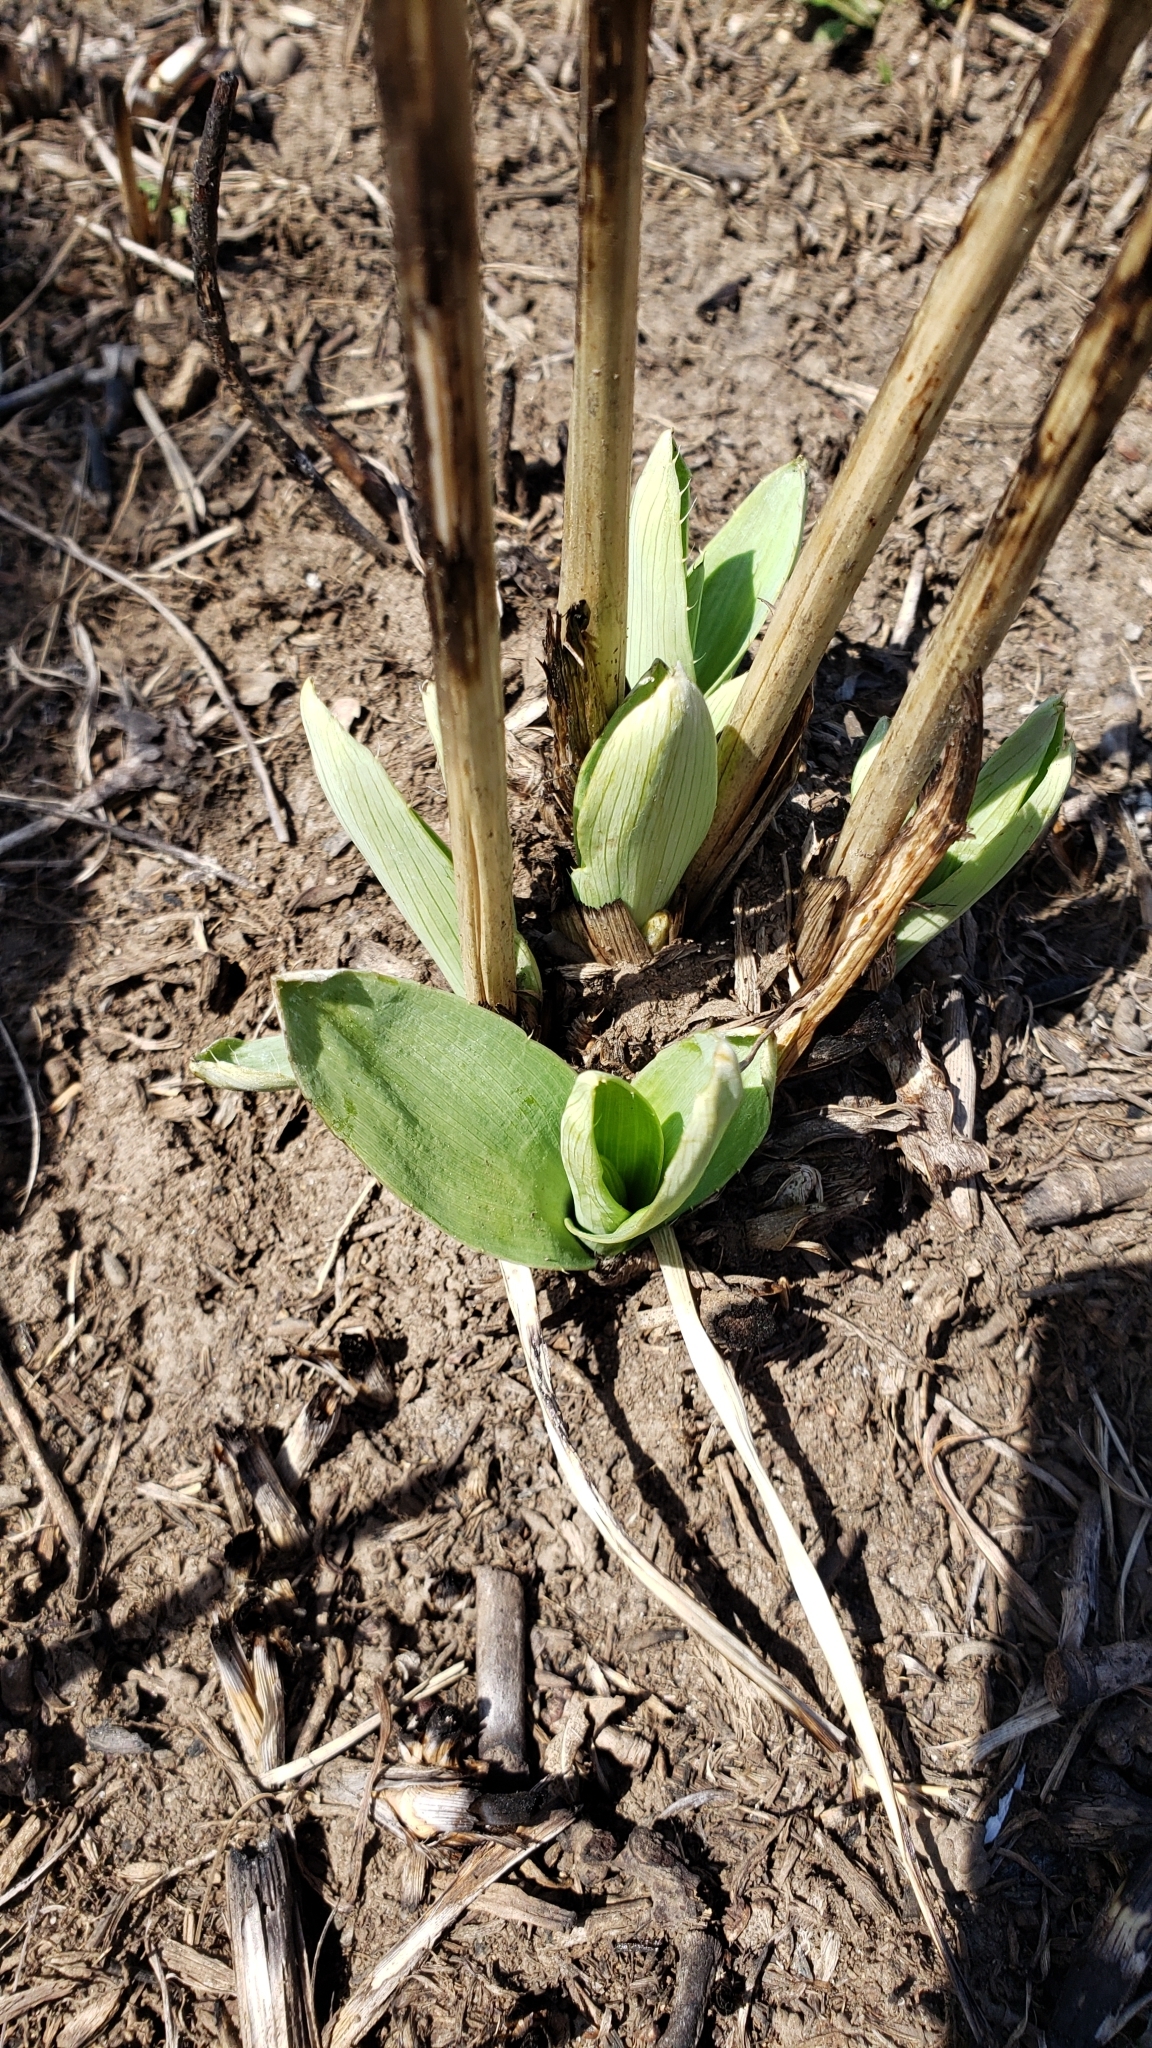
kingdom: Plantae
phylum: Tracheophyta
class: Magnoliopsida
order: Apiales
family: Apiaceae
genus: Eryngium
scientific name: Eryngium yuccifolium
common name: Button eryngo
